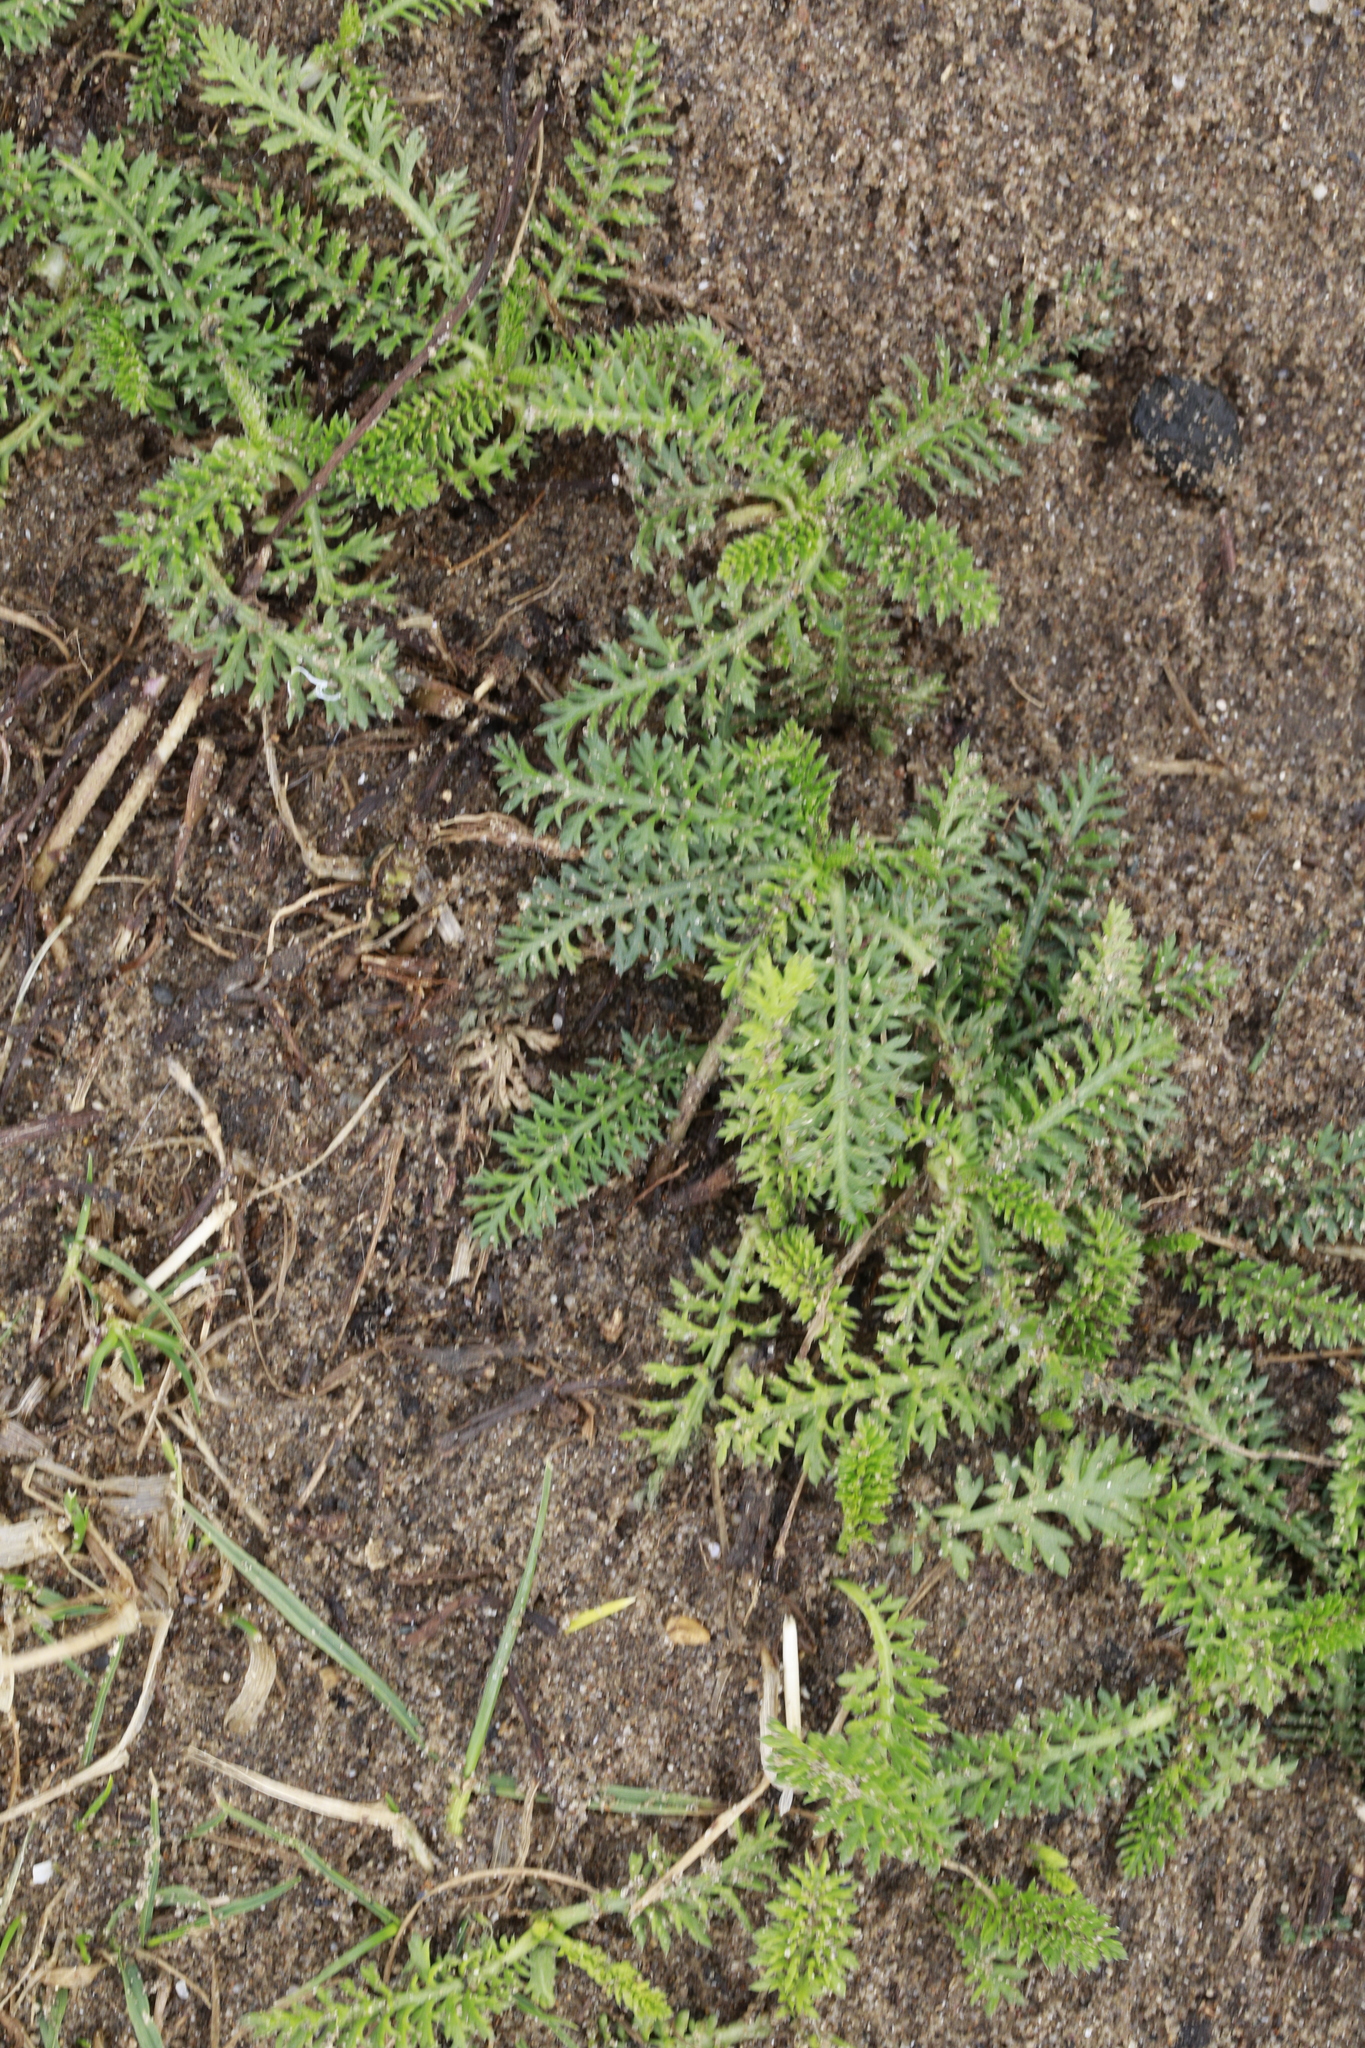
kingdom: Plantae
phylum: Tracheophyta
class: Magnoliopsida
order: Asterales
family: Asteraceae
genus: Achillea
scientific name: Achillea millefolium
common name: Yarrow
